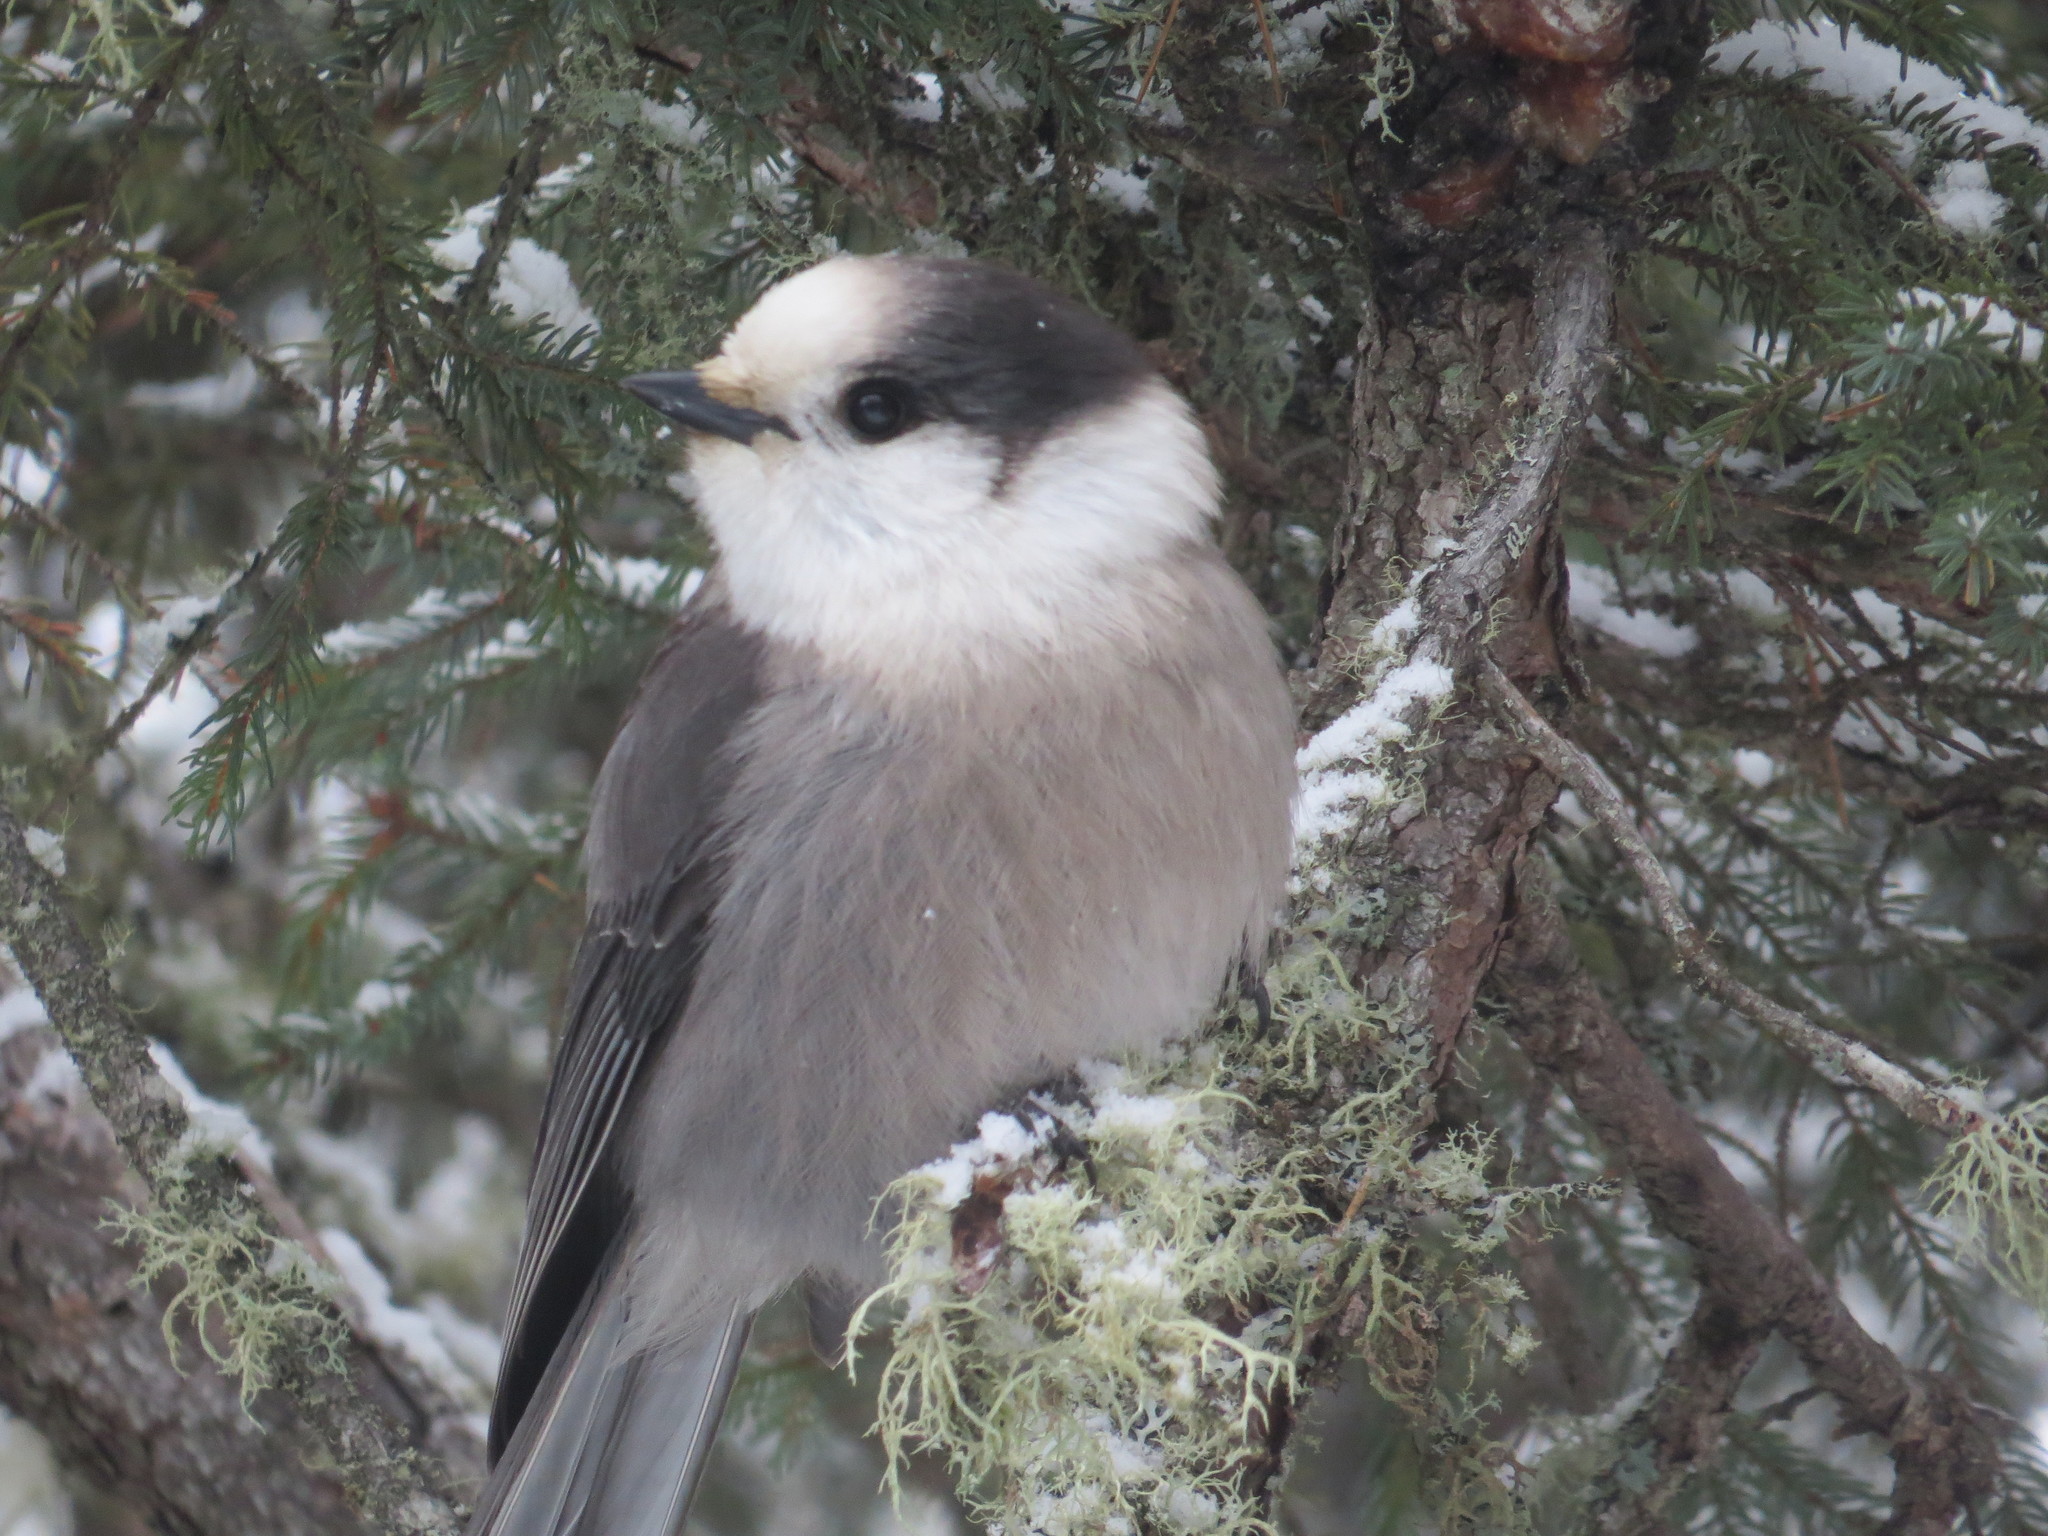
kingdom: Animalia
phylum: Chordata
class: Aves
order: Passeriformes
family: Corvidae
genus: Perisoreus
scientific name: Perisoreus canadensis
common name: Gray jay
